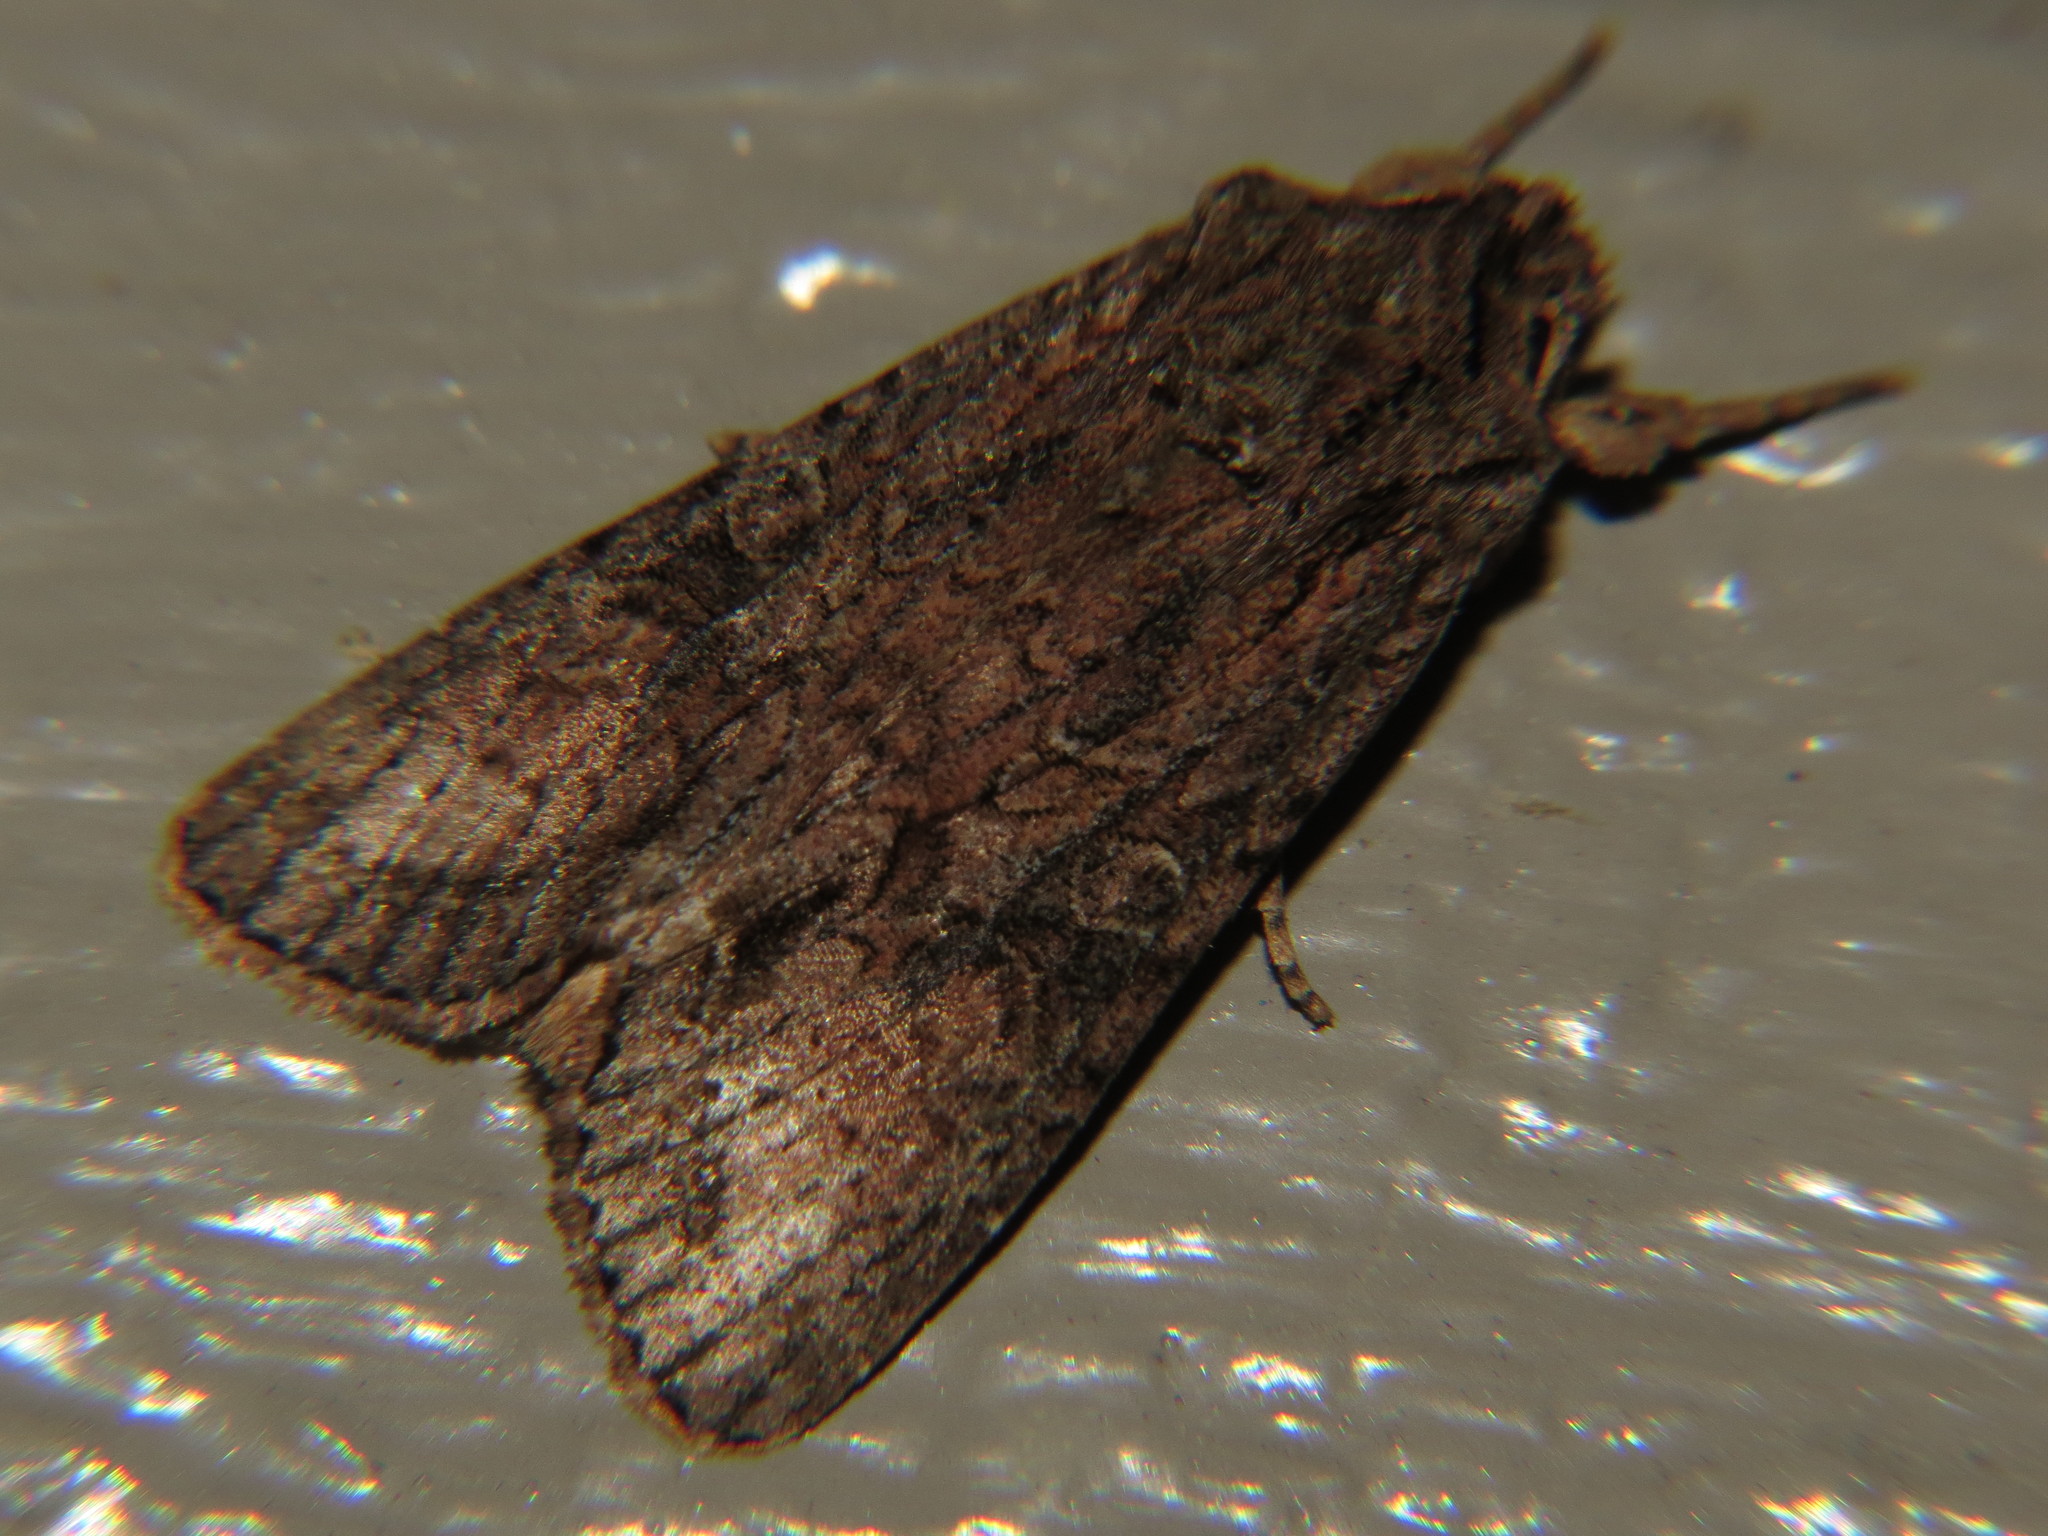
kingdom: Animalia
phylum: Arthropoda
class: Insecta
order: Lepidoptera
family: Noctuidae
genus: Ichneutica
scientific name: Ichneutica mutans
